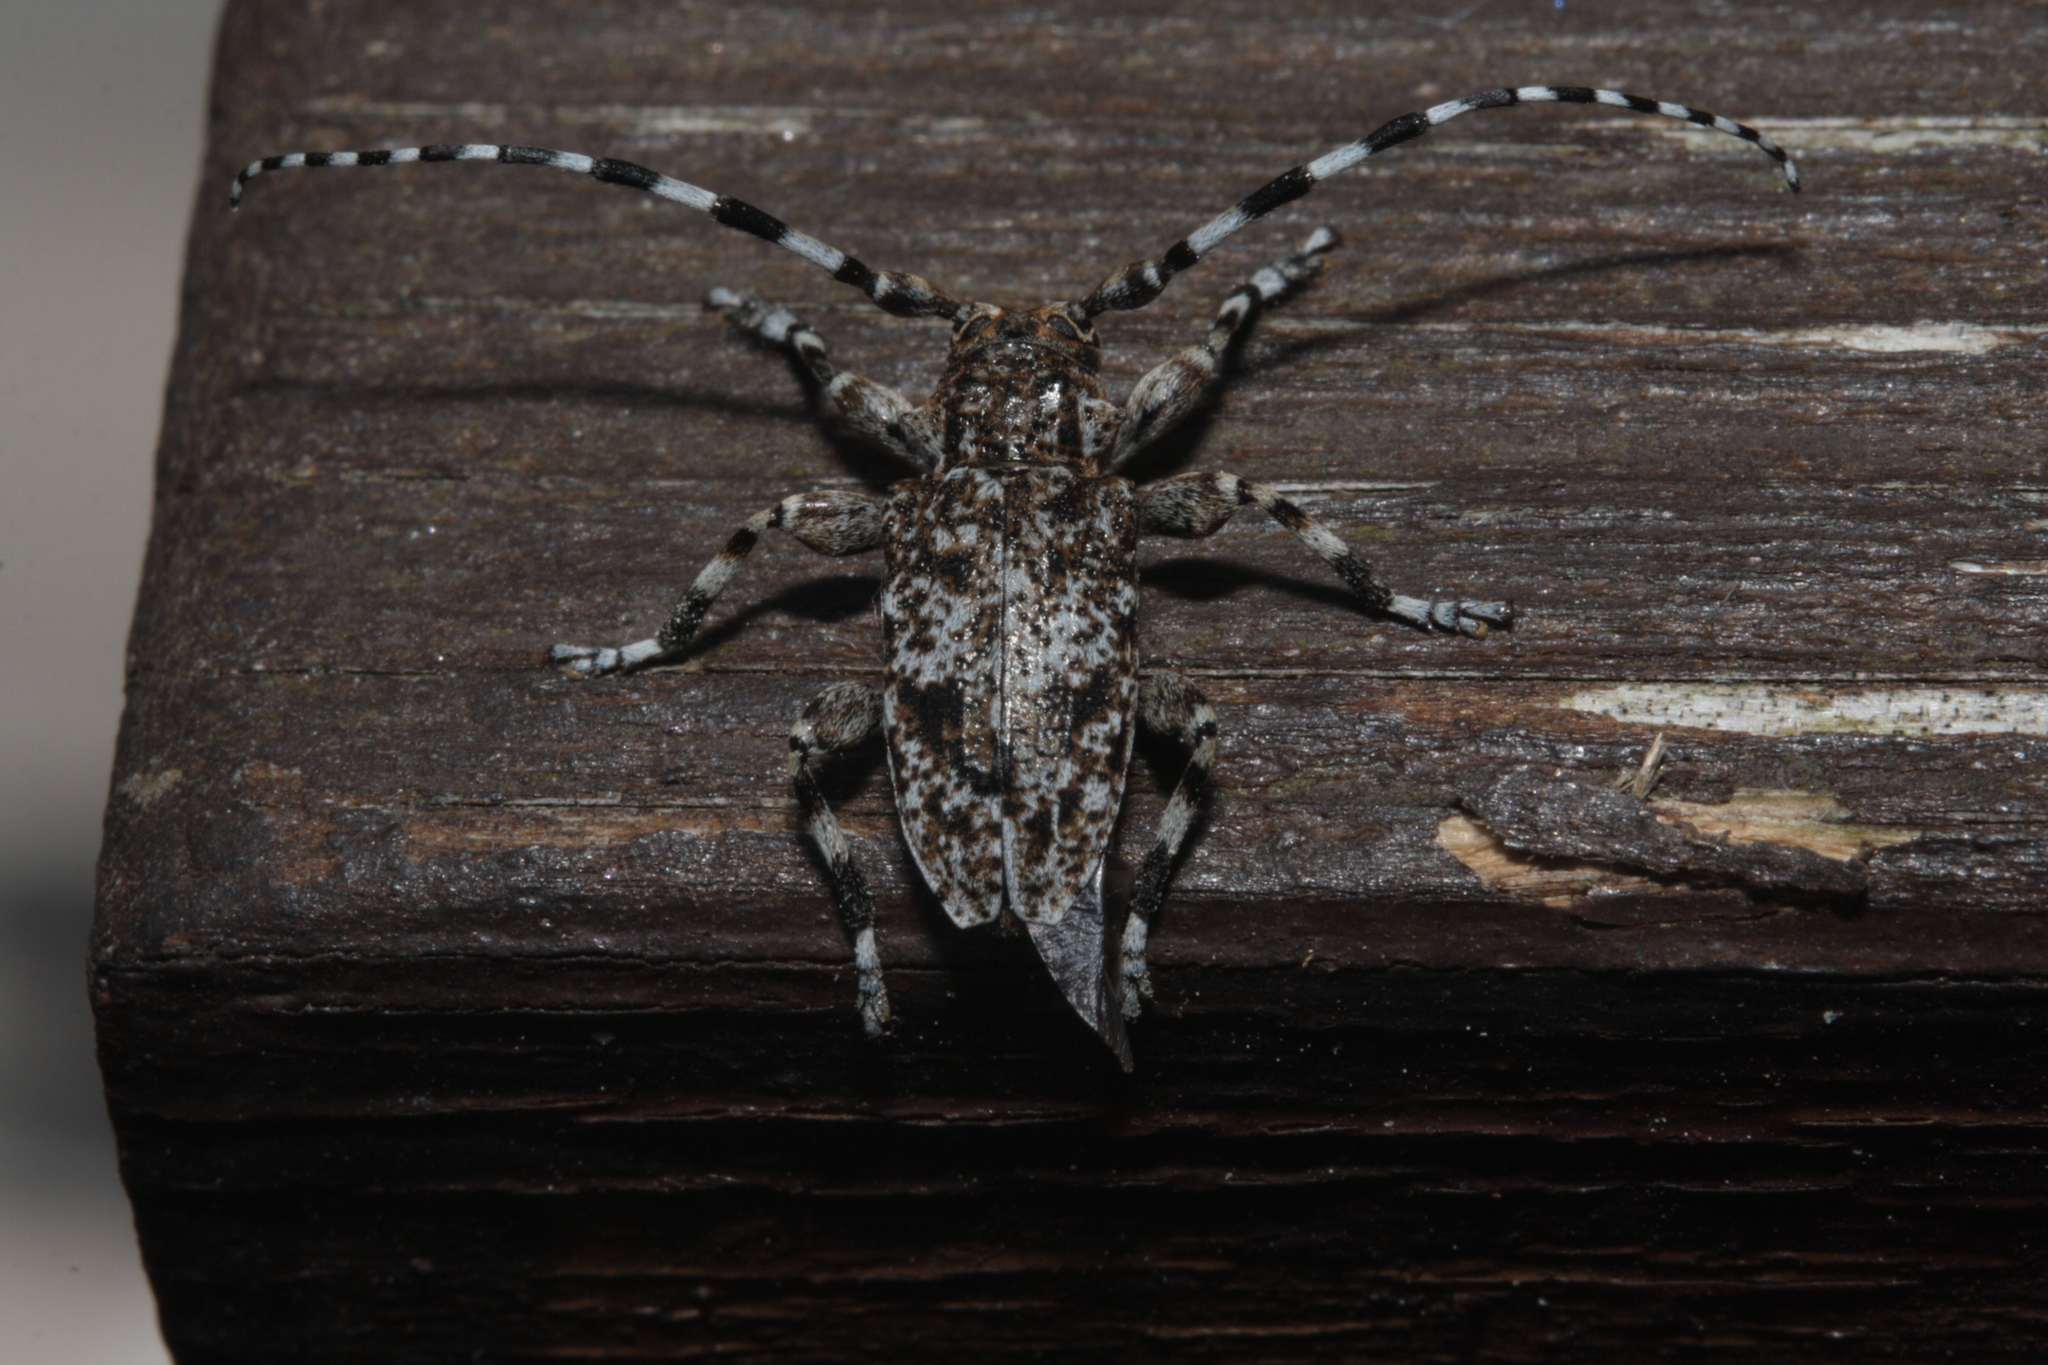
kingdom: Animalia
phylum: Arthropoda
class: Insecta
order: Coleoptera
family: Cerambycidae
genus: Aegomorphus
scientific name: Aegomorphus clavipes
